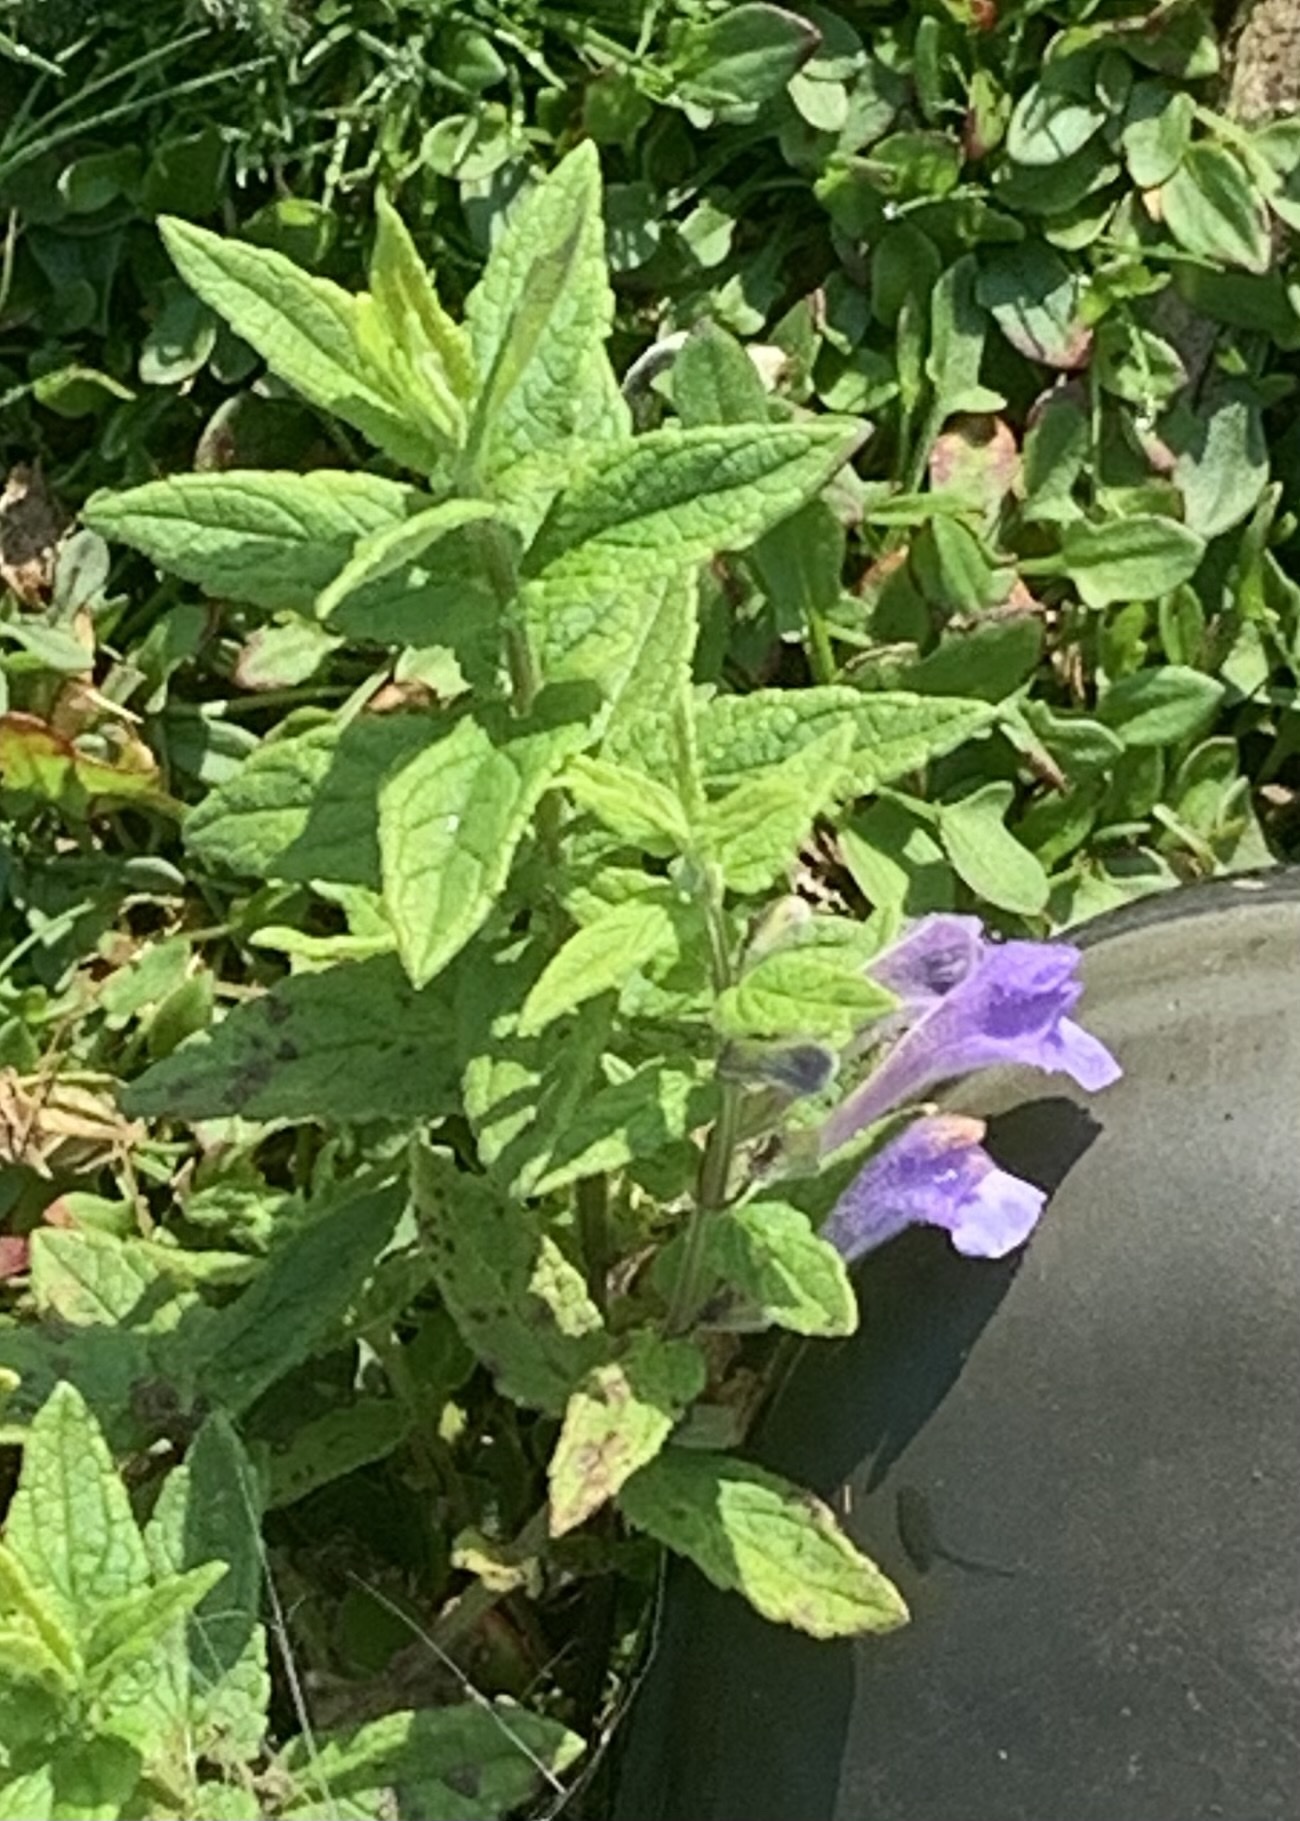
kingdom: Plantae
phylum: Tracheophyta
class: Magnoliopsida
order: Lamiales
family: Lamiaceae
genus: Scutellaria
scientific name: Scutellaria galericulata
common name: Skullcap
